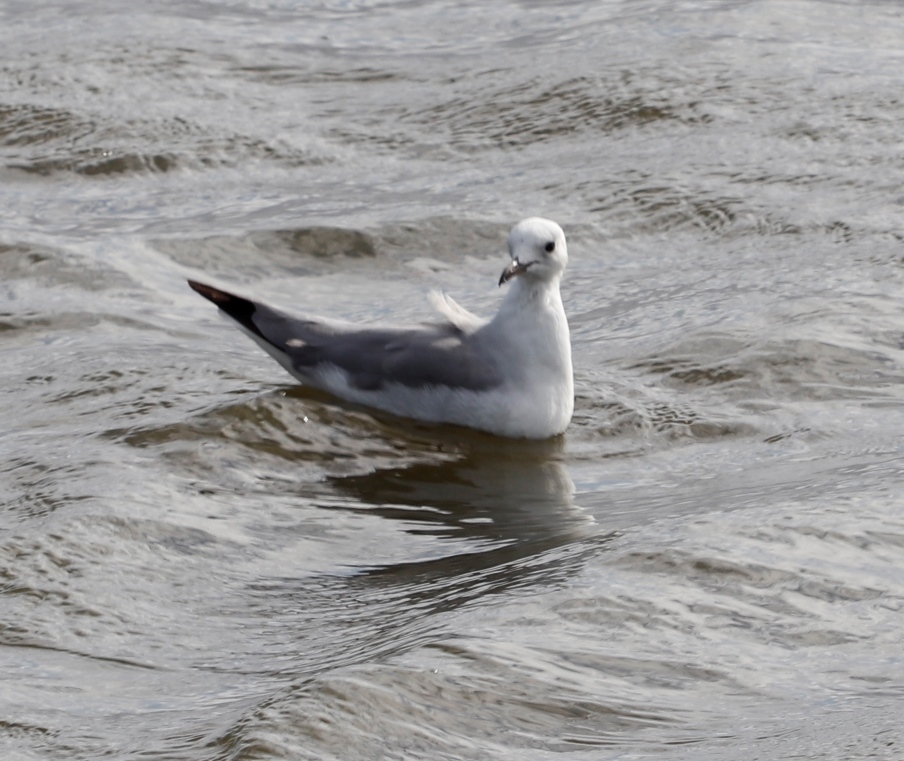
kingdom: Animalia
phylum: Chordata
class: Aves
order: Charadriiformes
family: Laridae
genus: Chroicocephalus
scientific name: Chroicocephalus hartlaubii
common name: Hartlaub's gull
